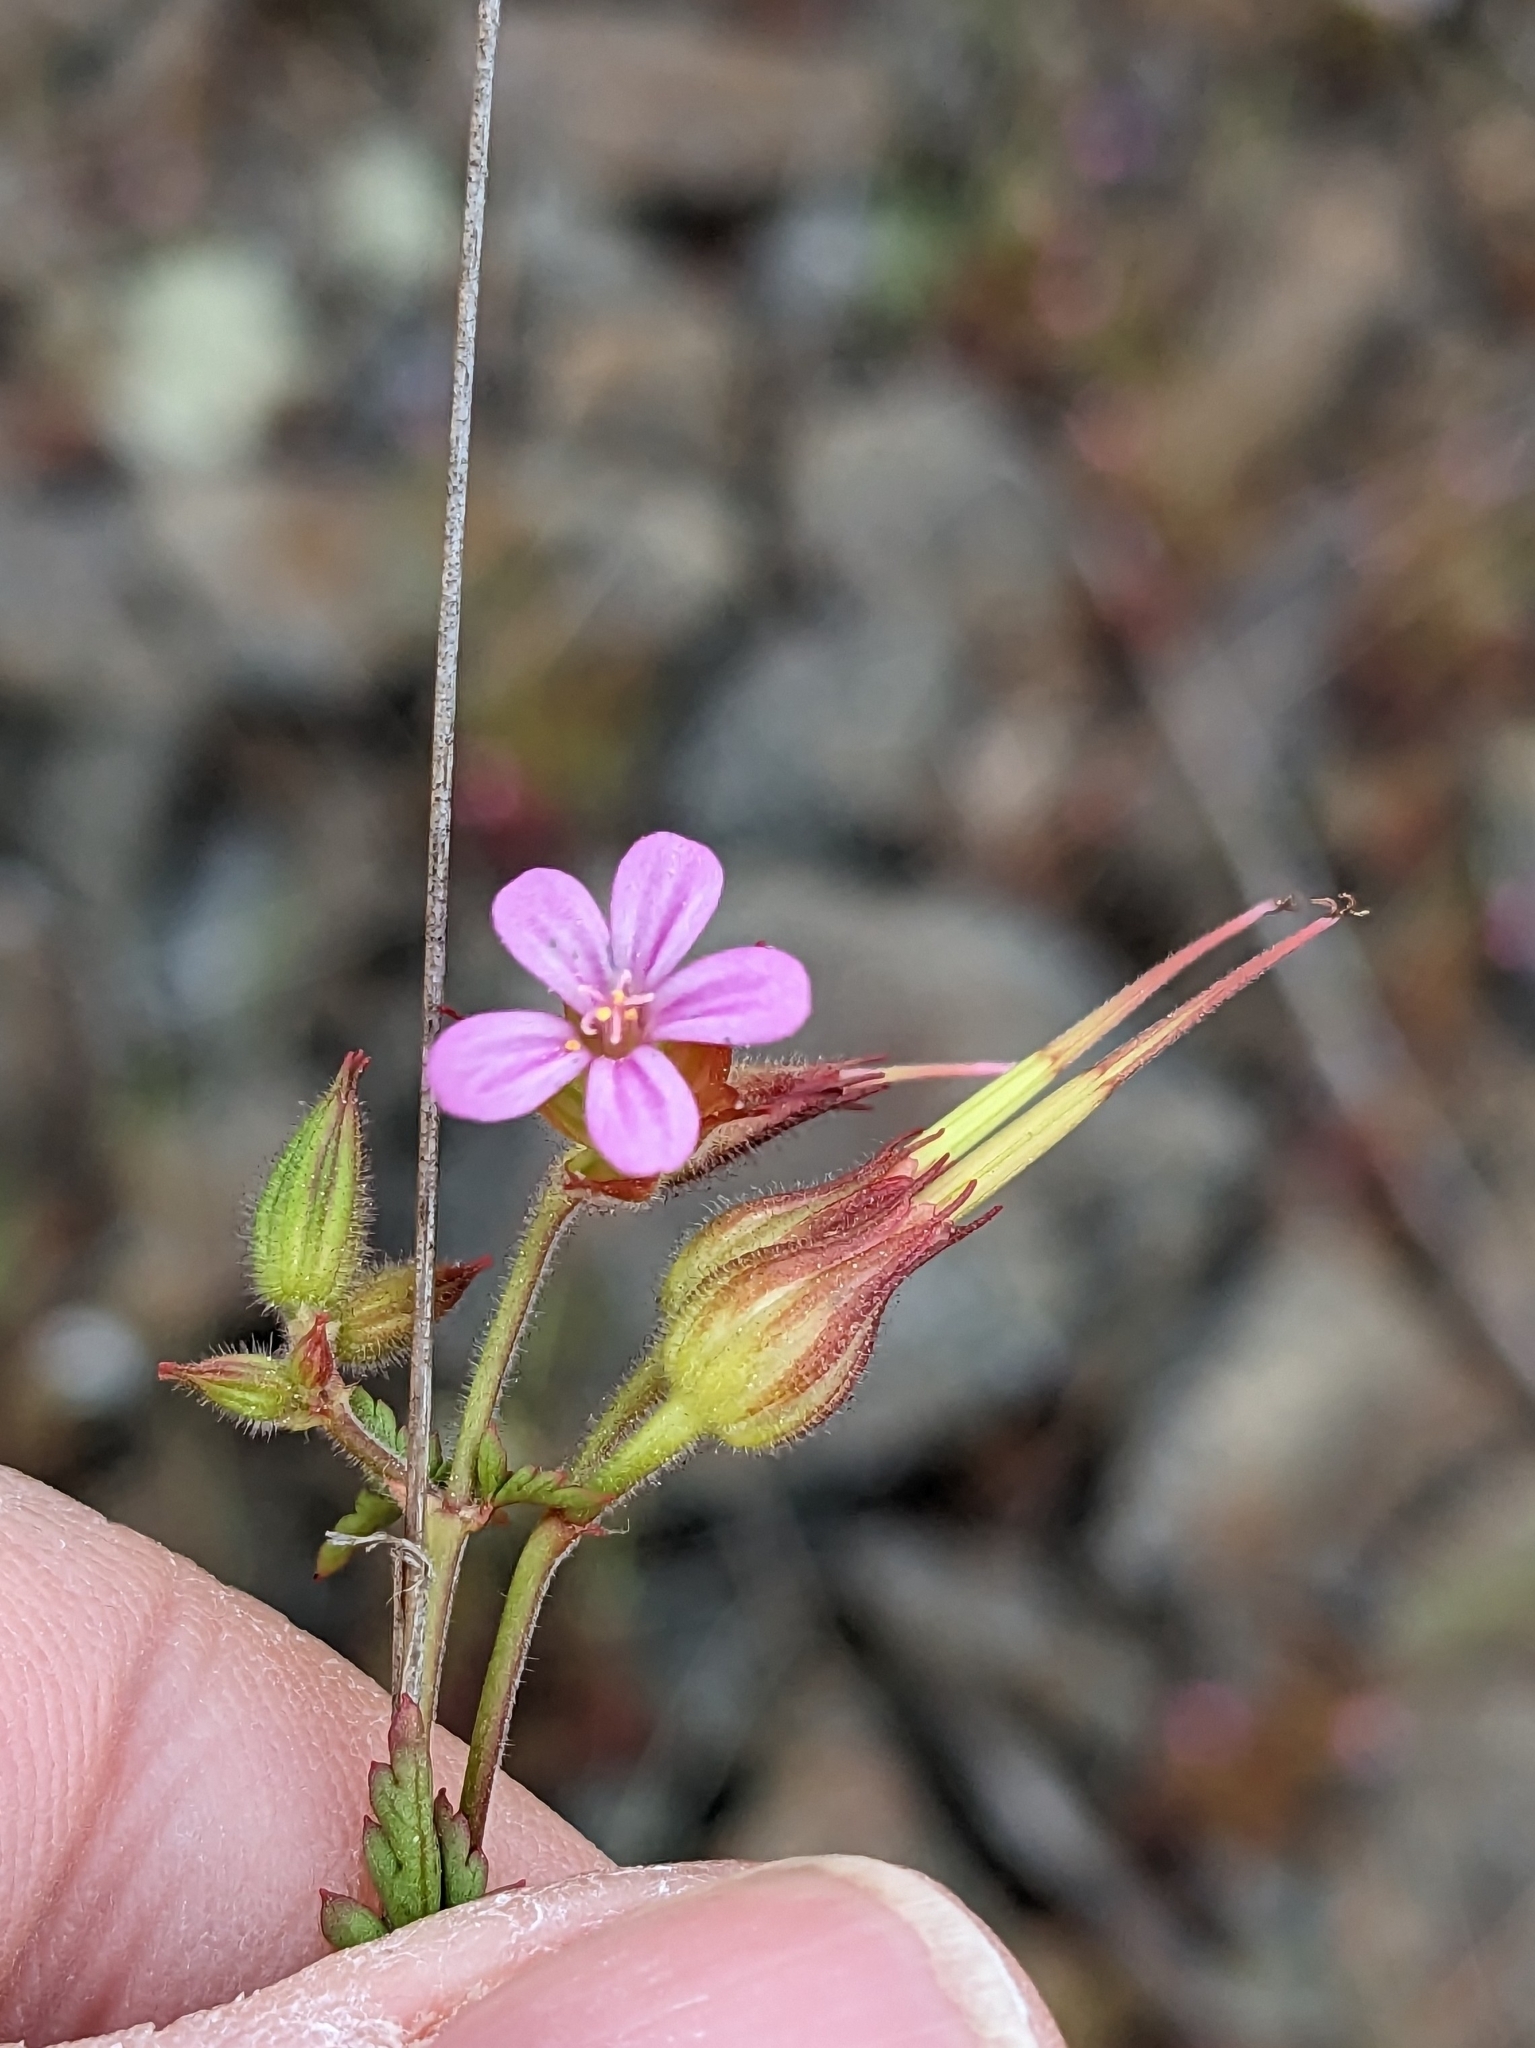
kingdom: Plantae
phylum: Tracheophyta
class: Magnoliopsida
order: Geraniales
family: Geraniaceae
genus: Erodium
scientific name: Erodium botrys
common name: Mediterranean stork's-bill
